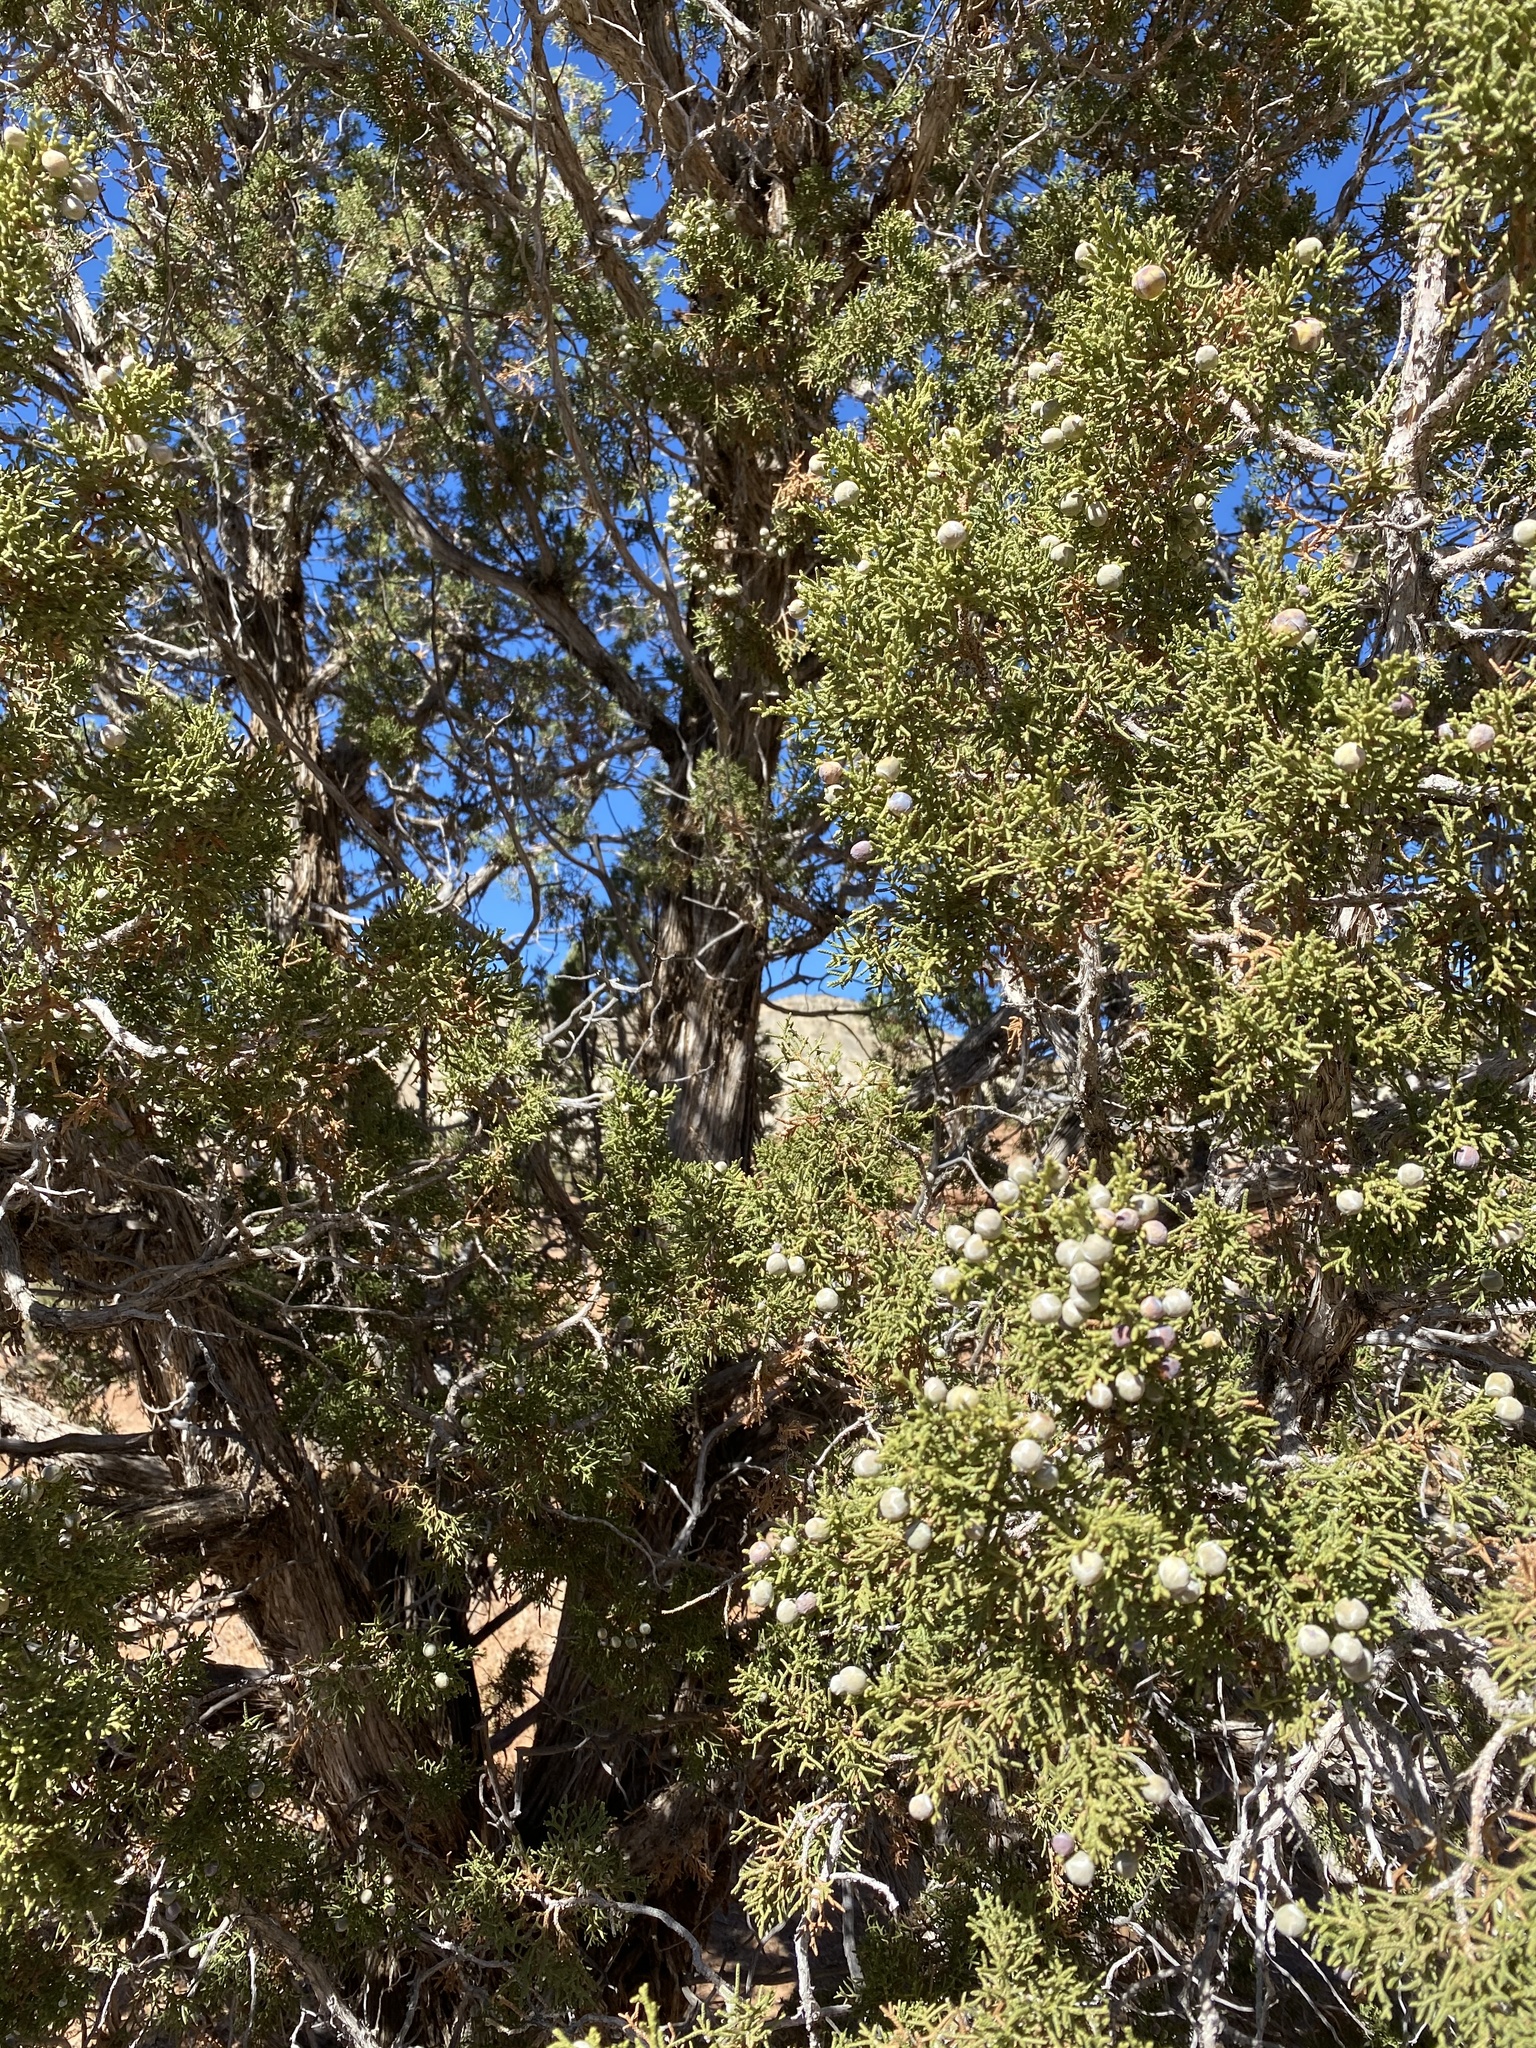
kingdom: Plantae
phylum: Tracheophyta
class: Pinopsida
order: Pinales
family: Cupressaceae
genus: Juniperus
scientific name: Juniperus osteosperma
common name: Utah juniper
